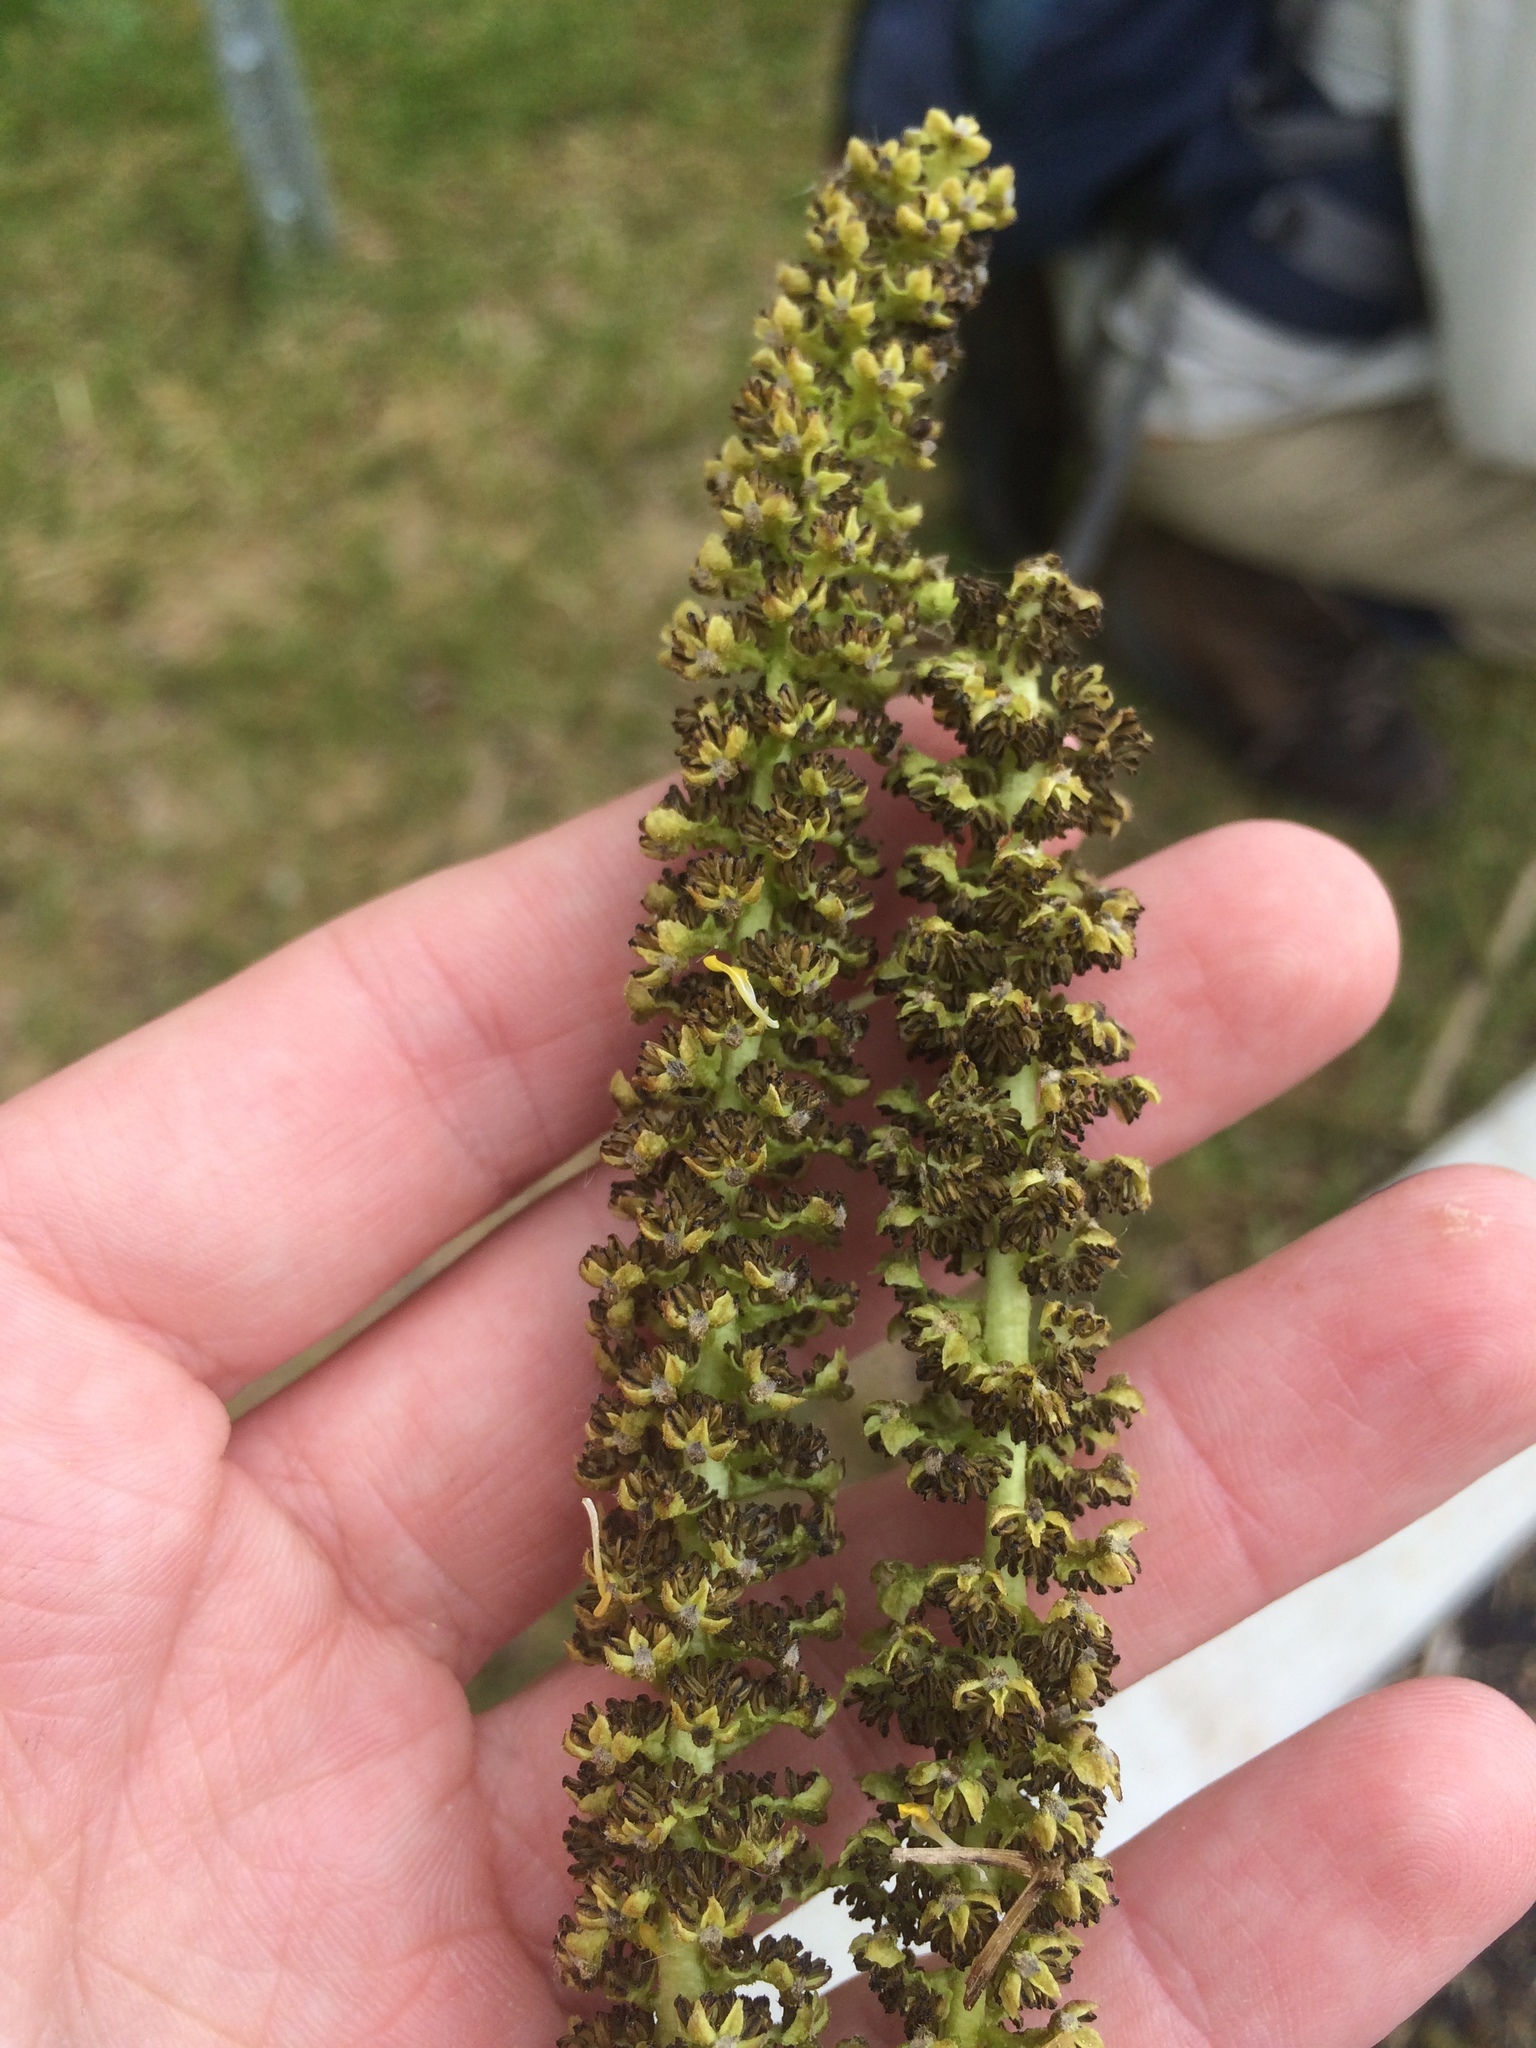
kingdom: Plantae
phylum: Tracheophyta
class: Magnoliopsida
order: Fagales
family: Juglandaceae
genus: Juglans
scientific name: Juglans cinerea
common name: Butternut
